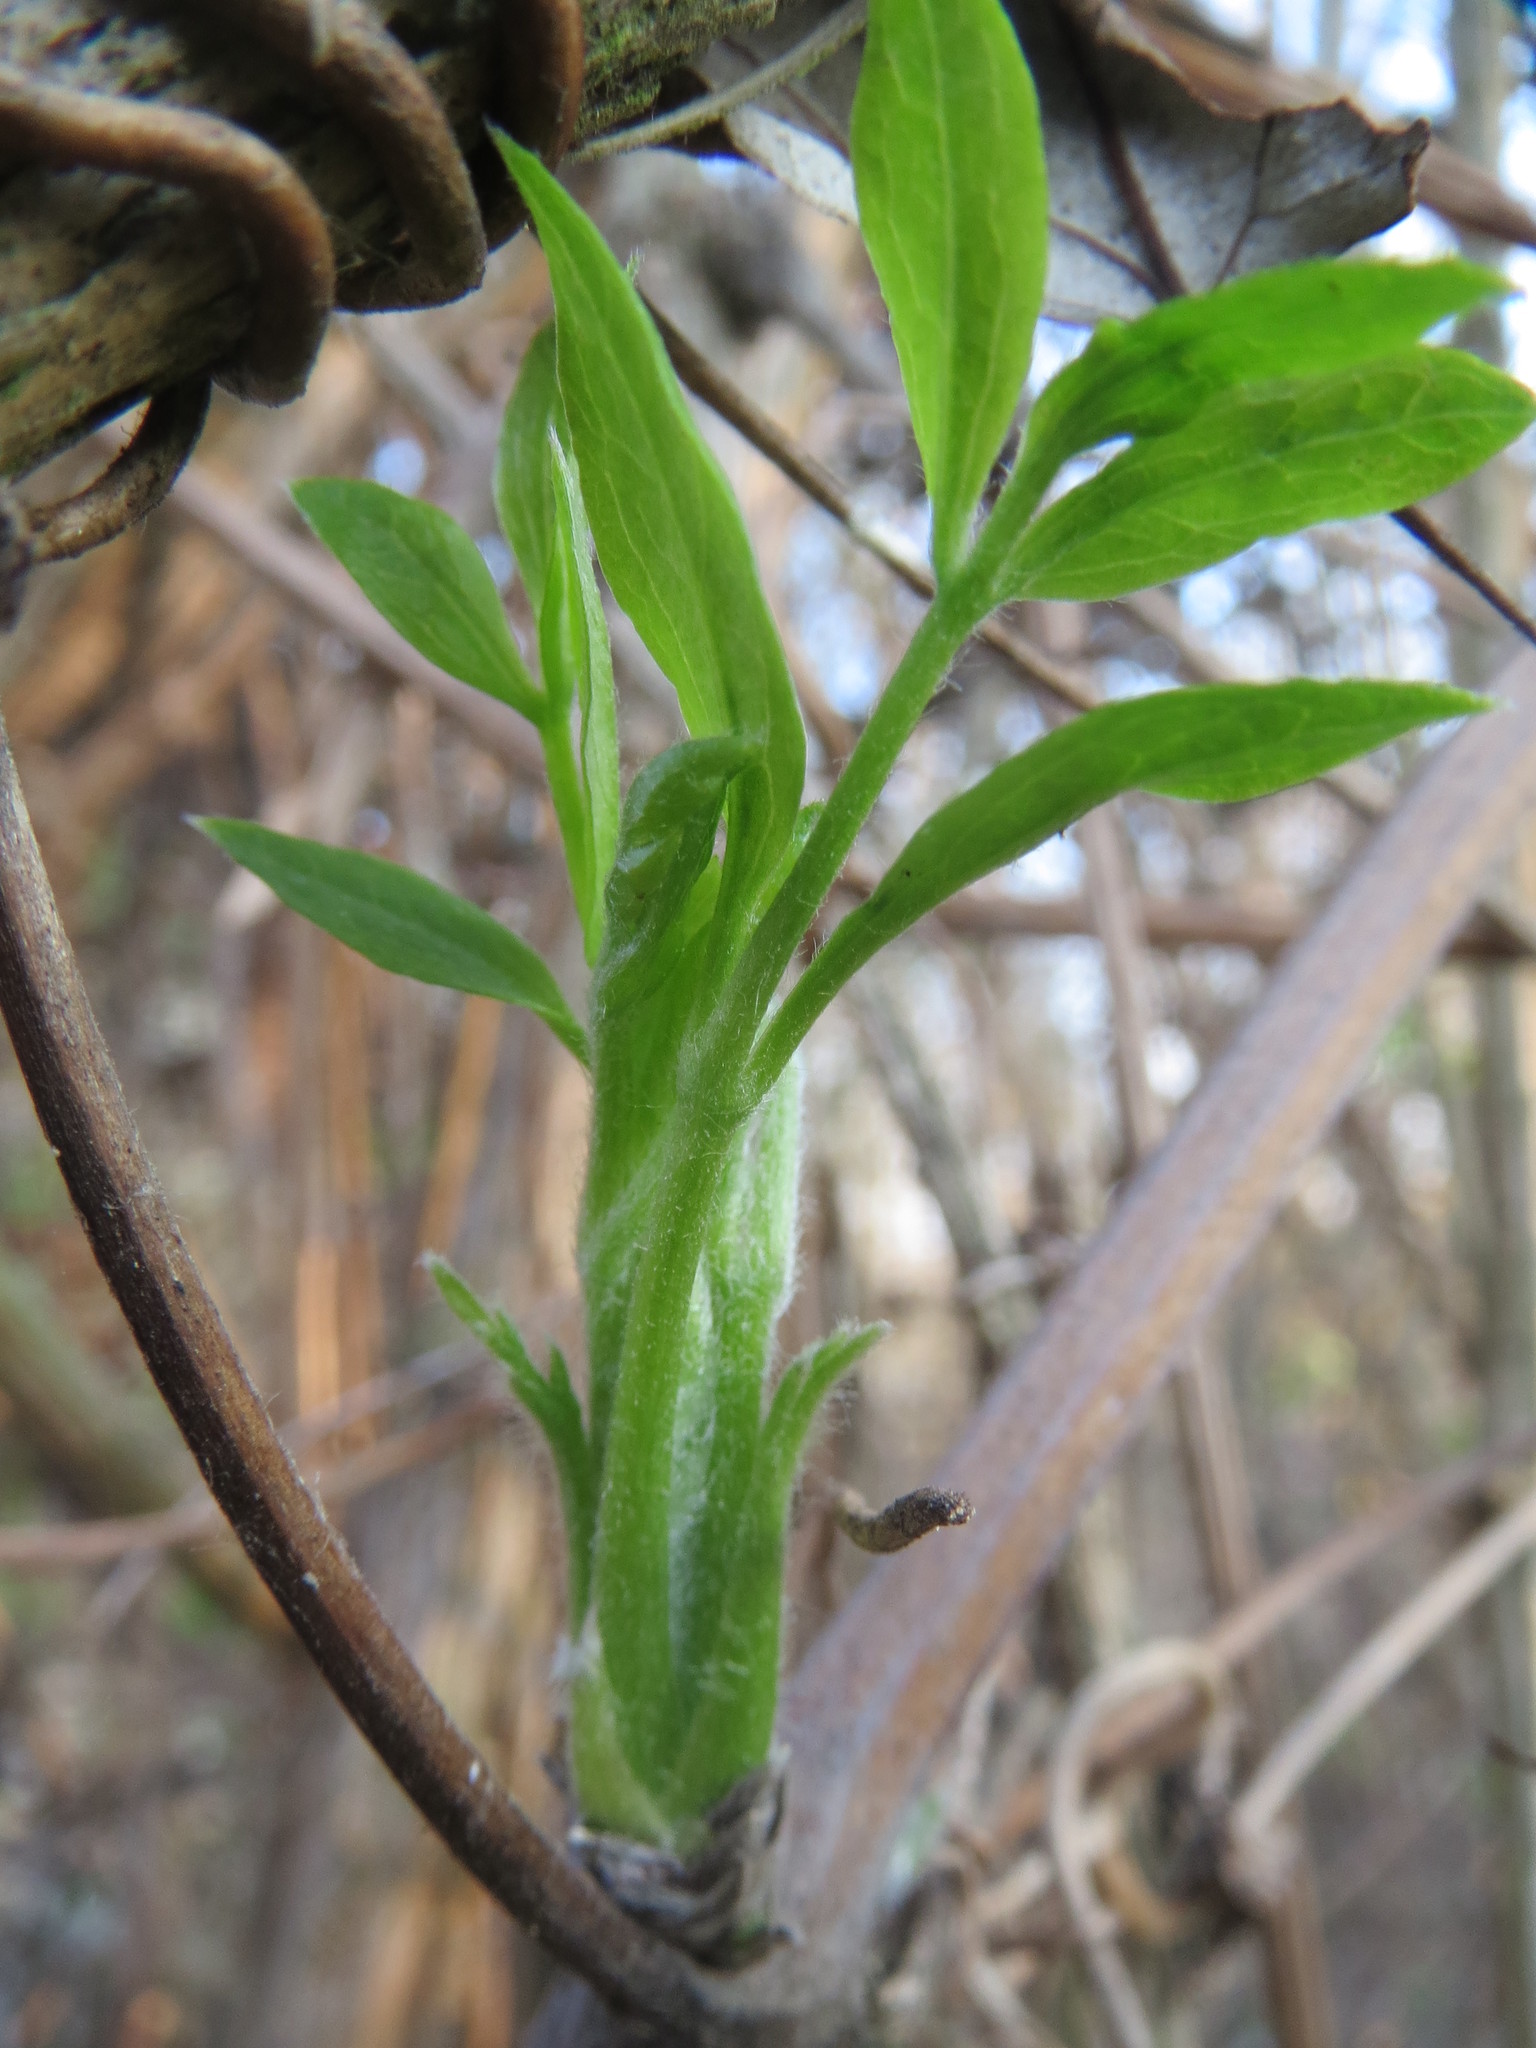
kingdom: Plantae
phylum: Tracheophyta
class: Magnoliopsida
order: Ranunculales
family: Ranunculaceae
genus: Clematis
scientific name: Clematis vitalba
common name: Evergreen clematis
